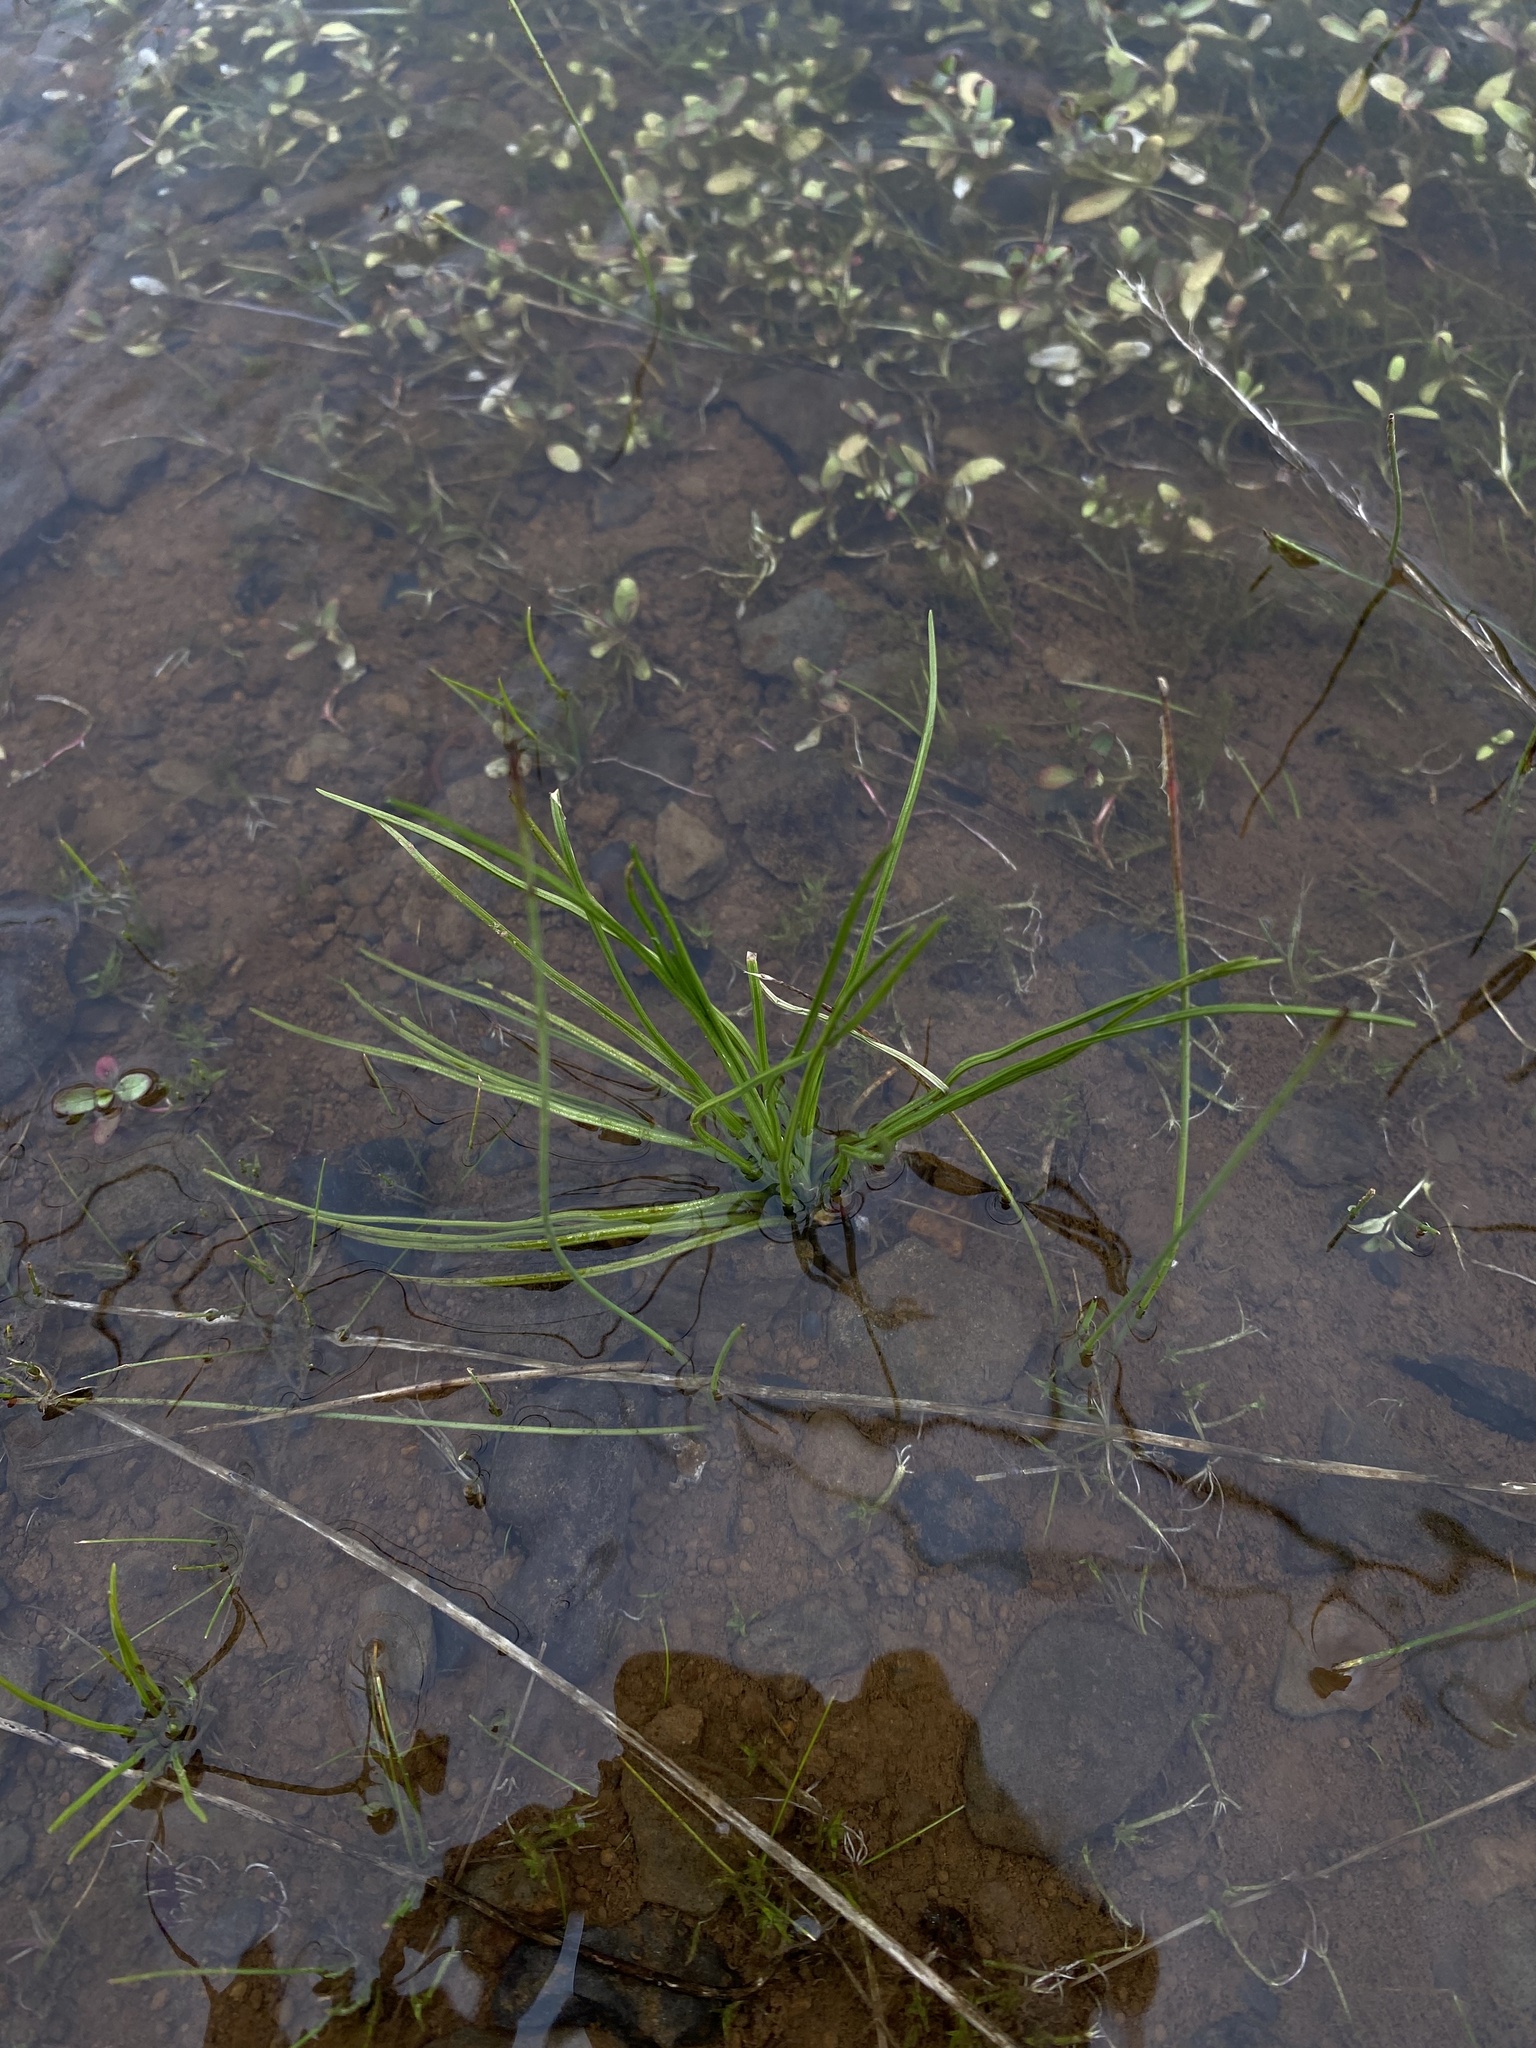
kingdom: Plantae
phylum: Tracheophyta
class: Lycopodiopsida
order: Isoetales
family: Isoetaceae
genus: Isoetes
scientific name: Isoetes nuttallii
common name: Nuttall's quillwort
